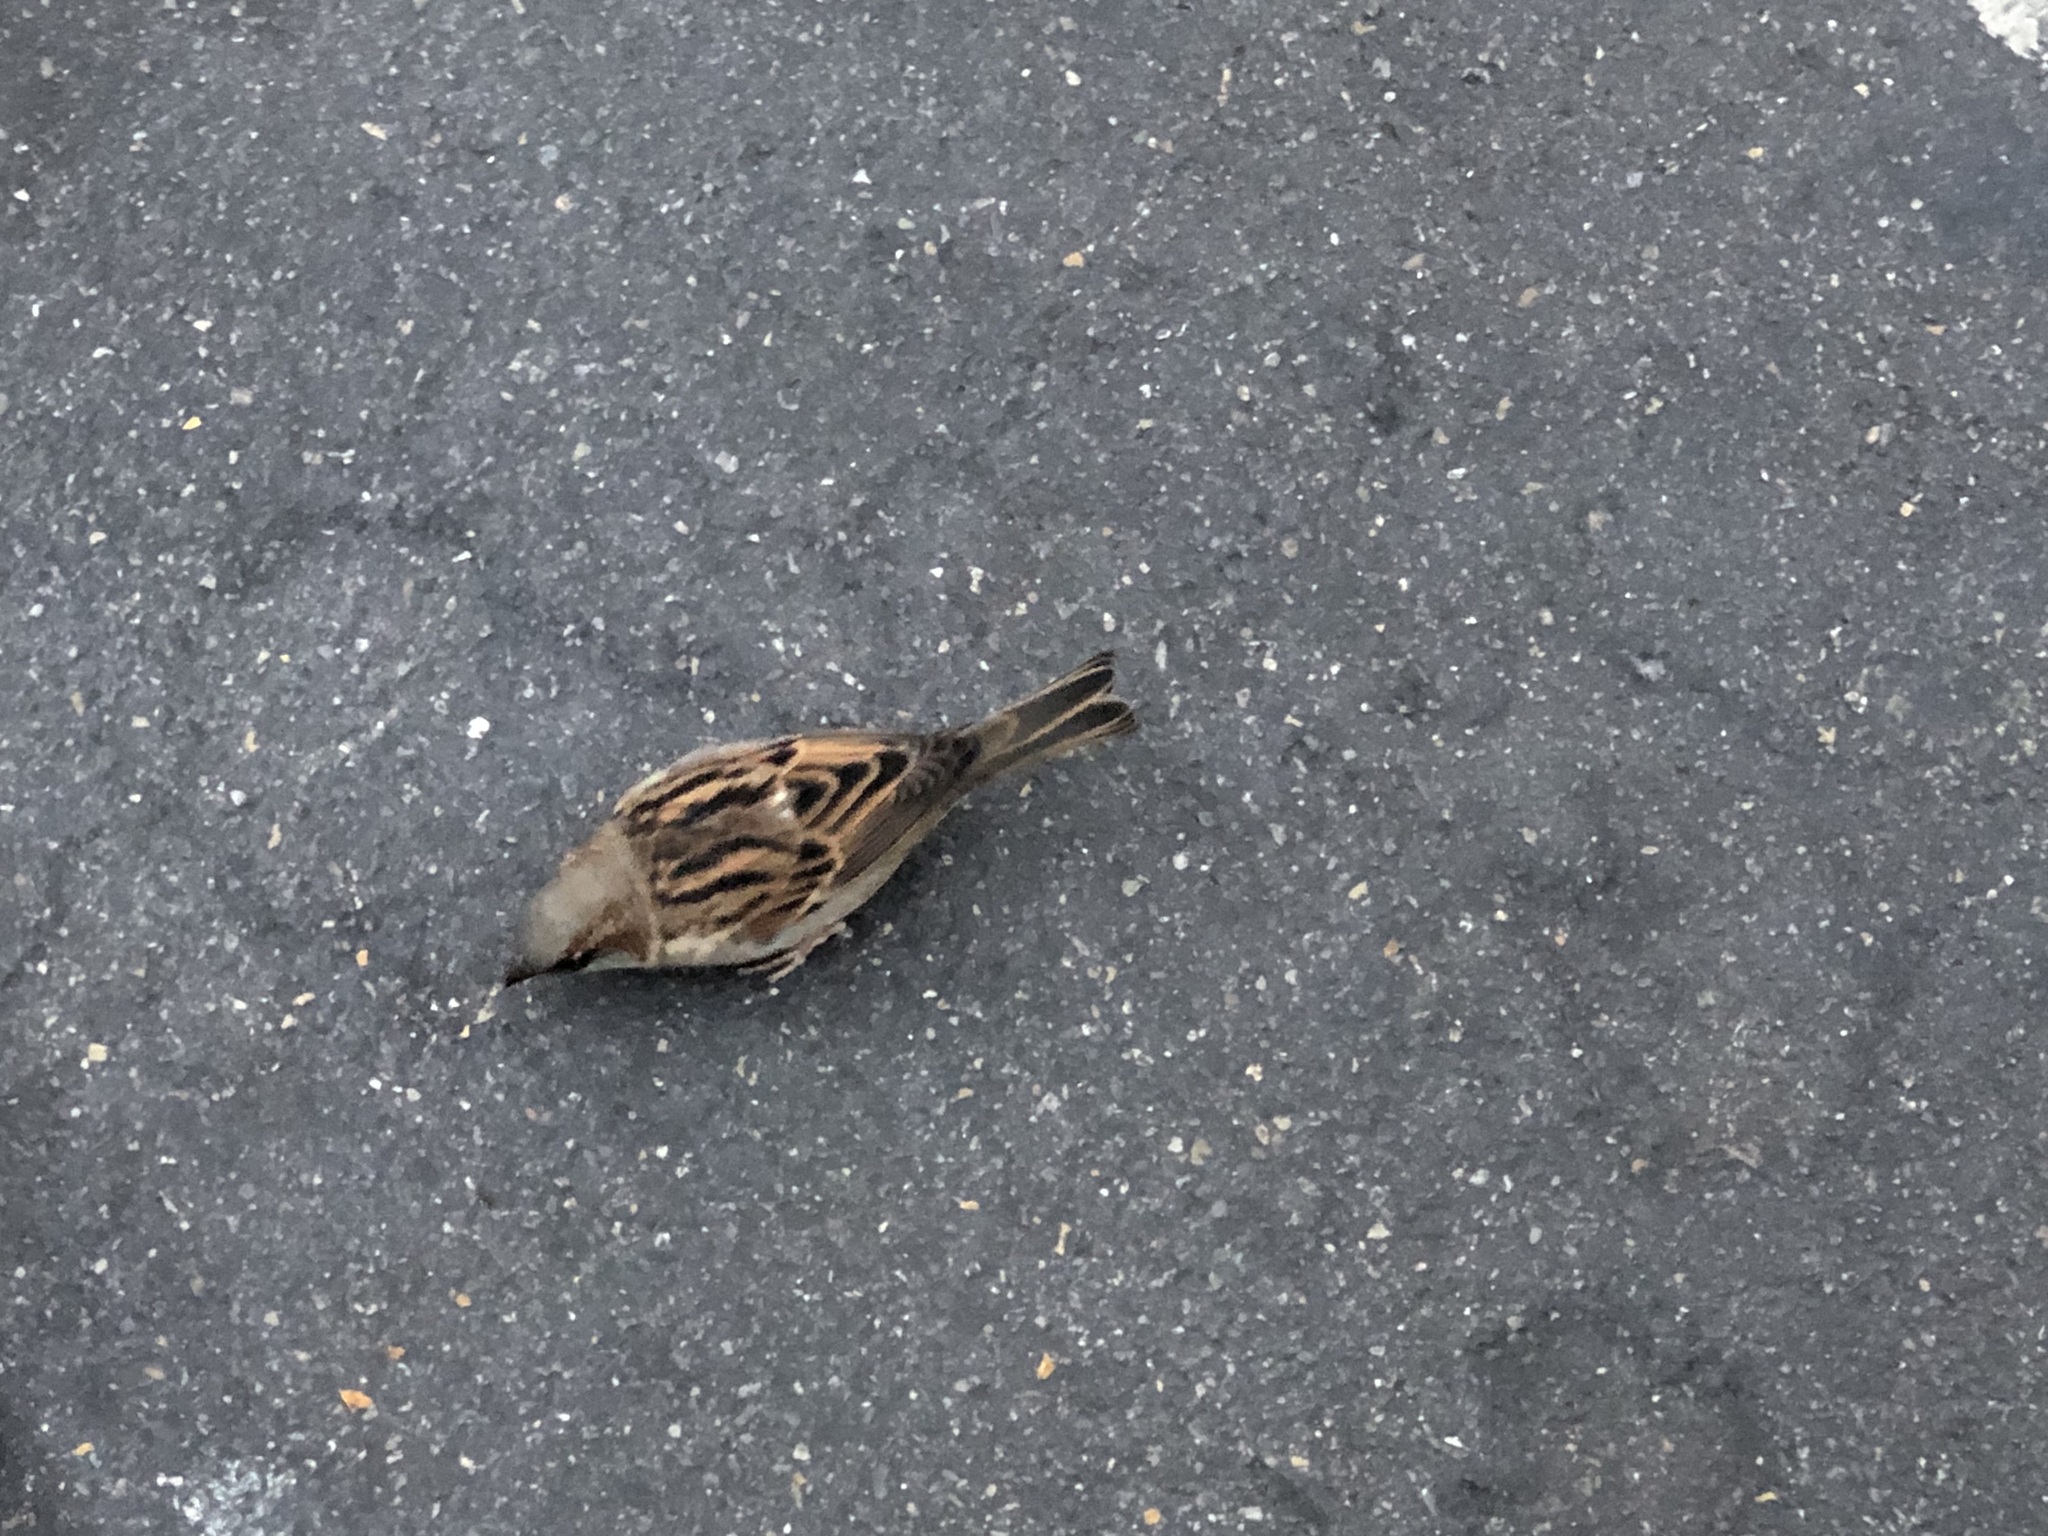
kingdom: Animalia
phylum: Chordata
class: Aves
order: Passeriformes
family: Passeridae
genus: Passer
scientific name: Passer domesticus
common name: House sparrow
